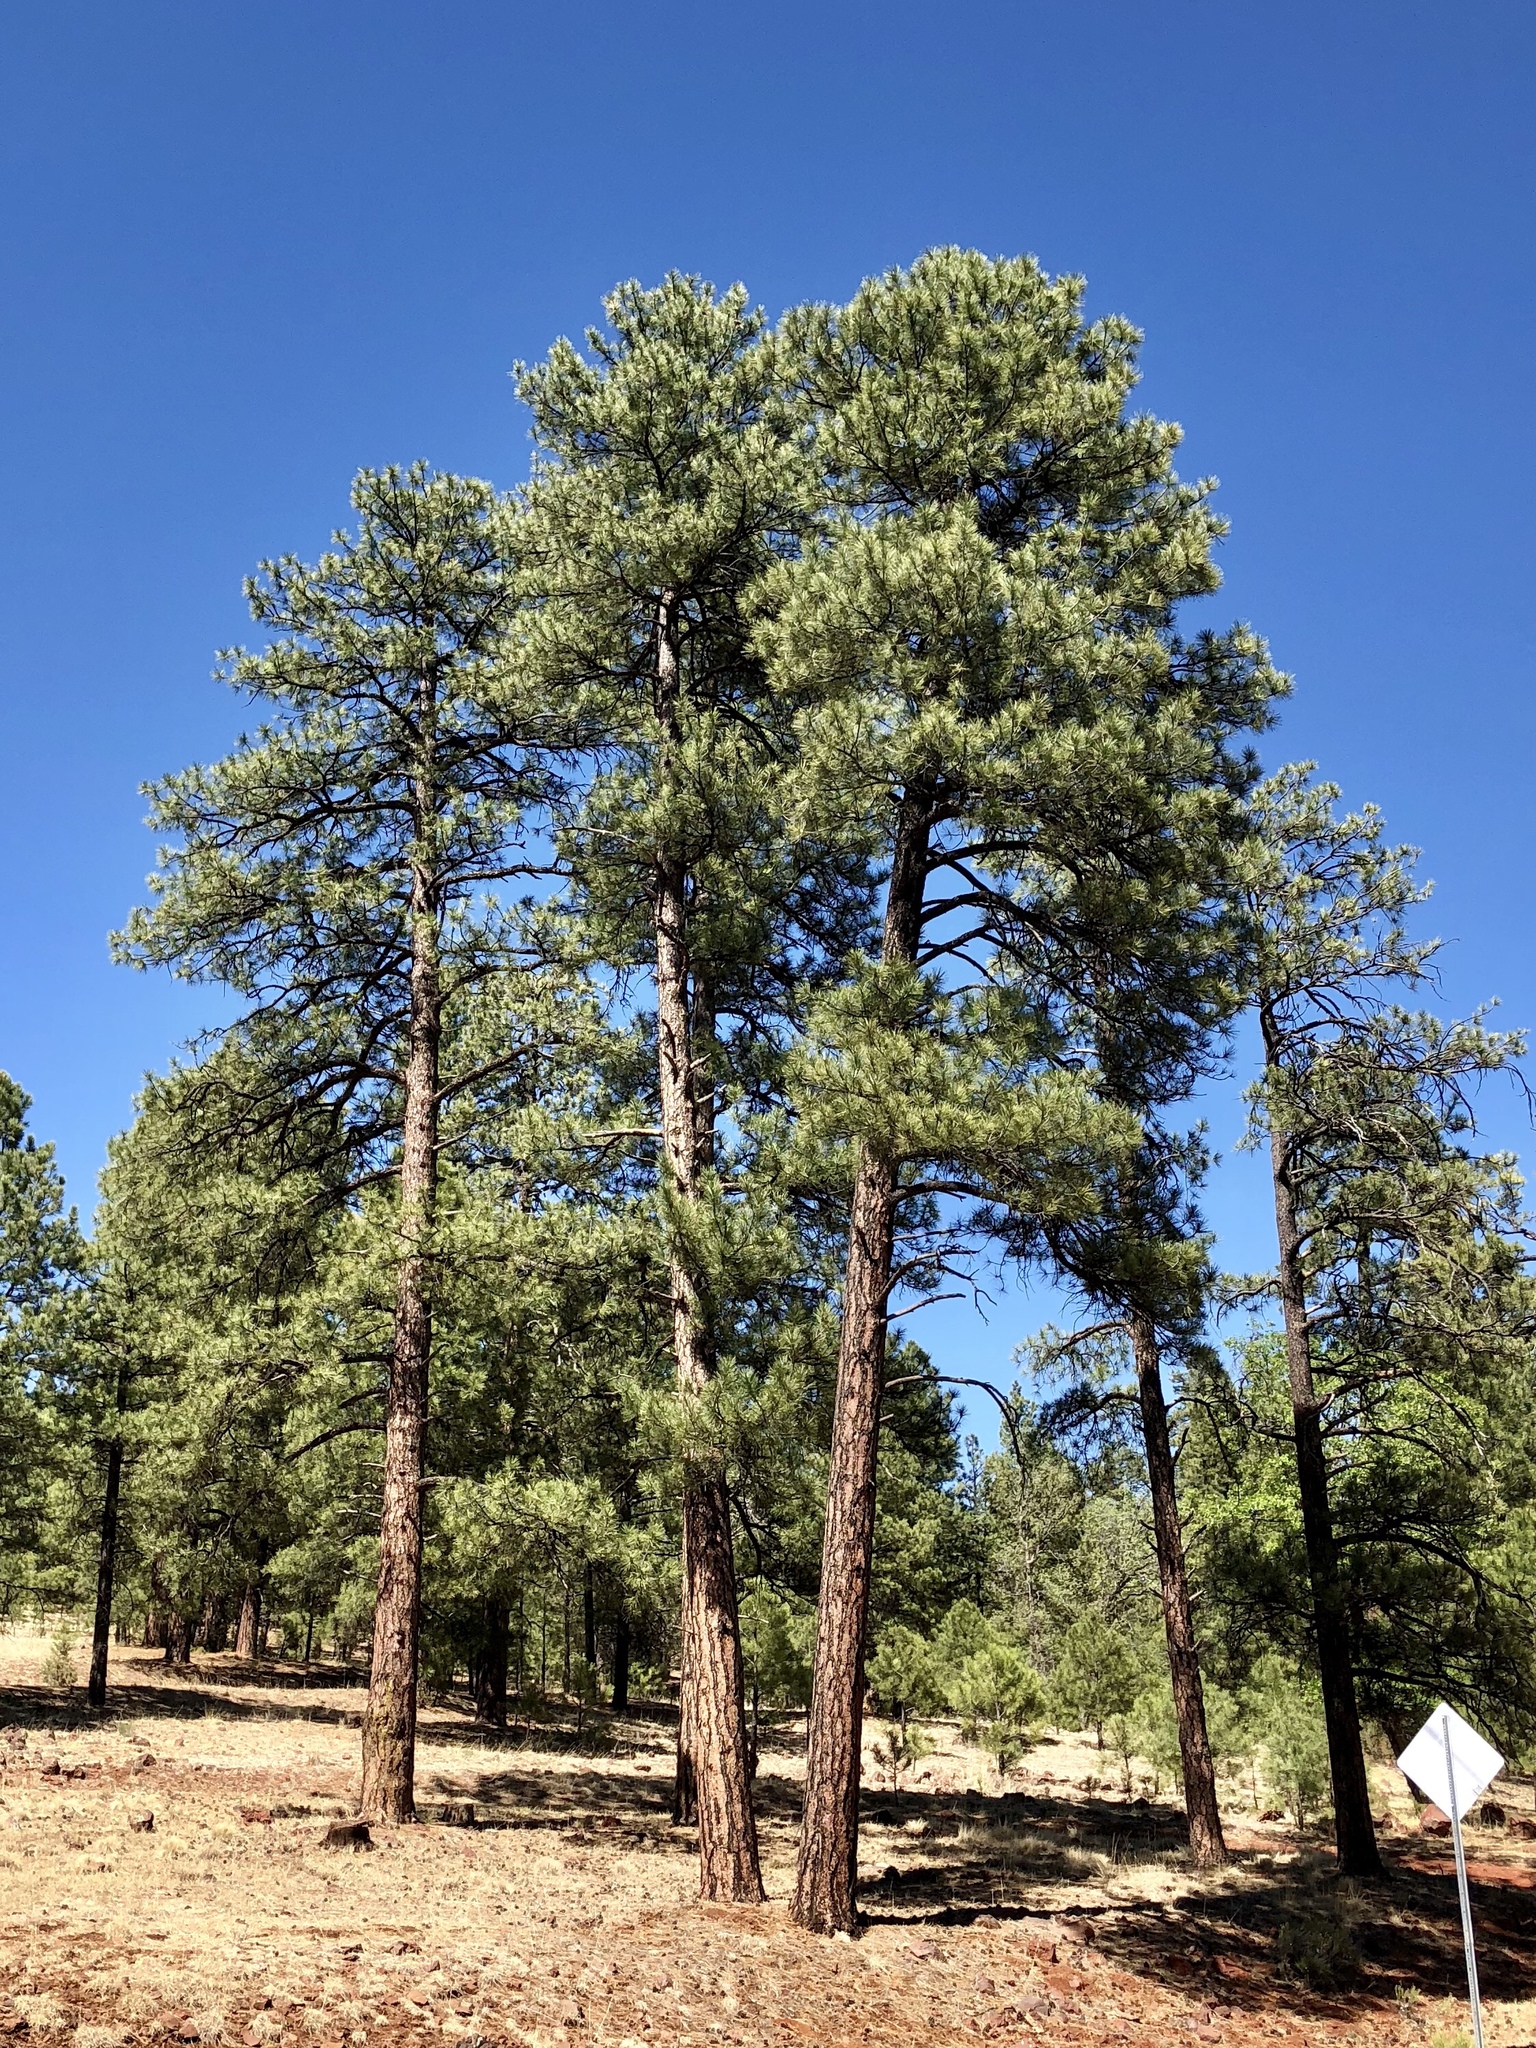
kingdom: Plantae
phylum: Tracheophyta
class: Pinopsida
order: Pinales
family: Pinaceae
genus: Pinus
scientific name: Pinus ponderosa
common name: Western yellow-pine
